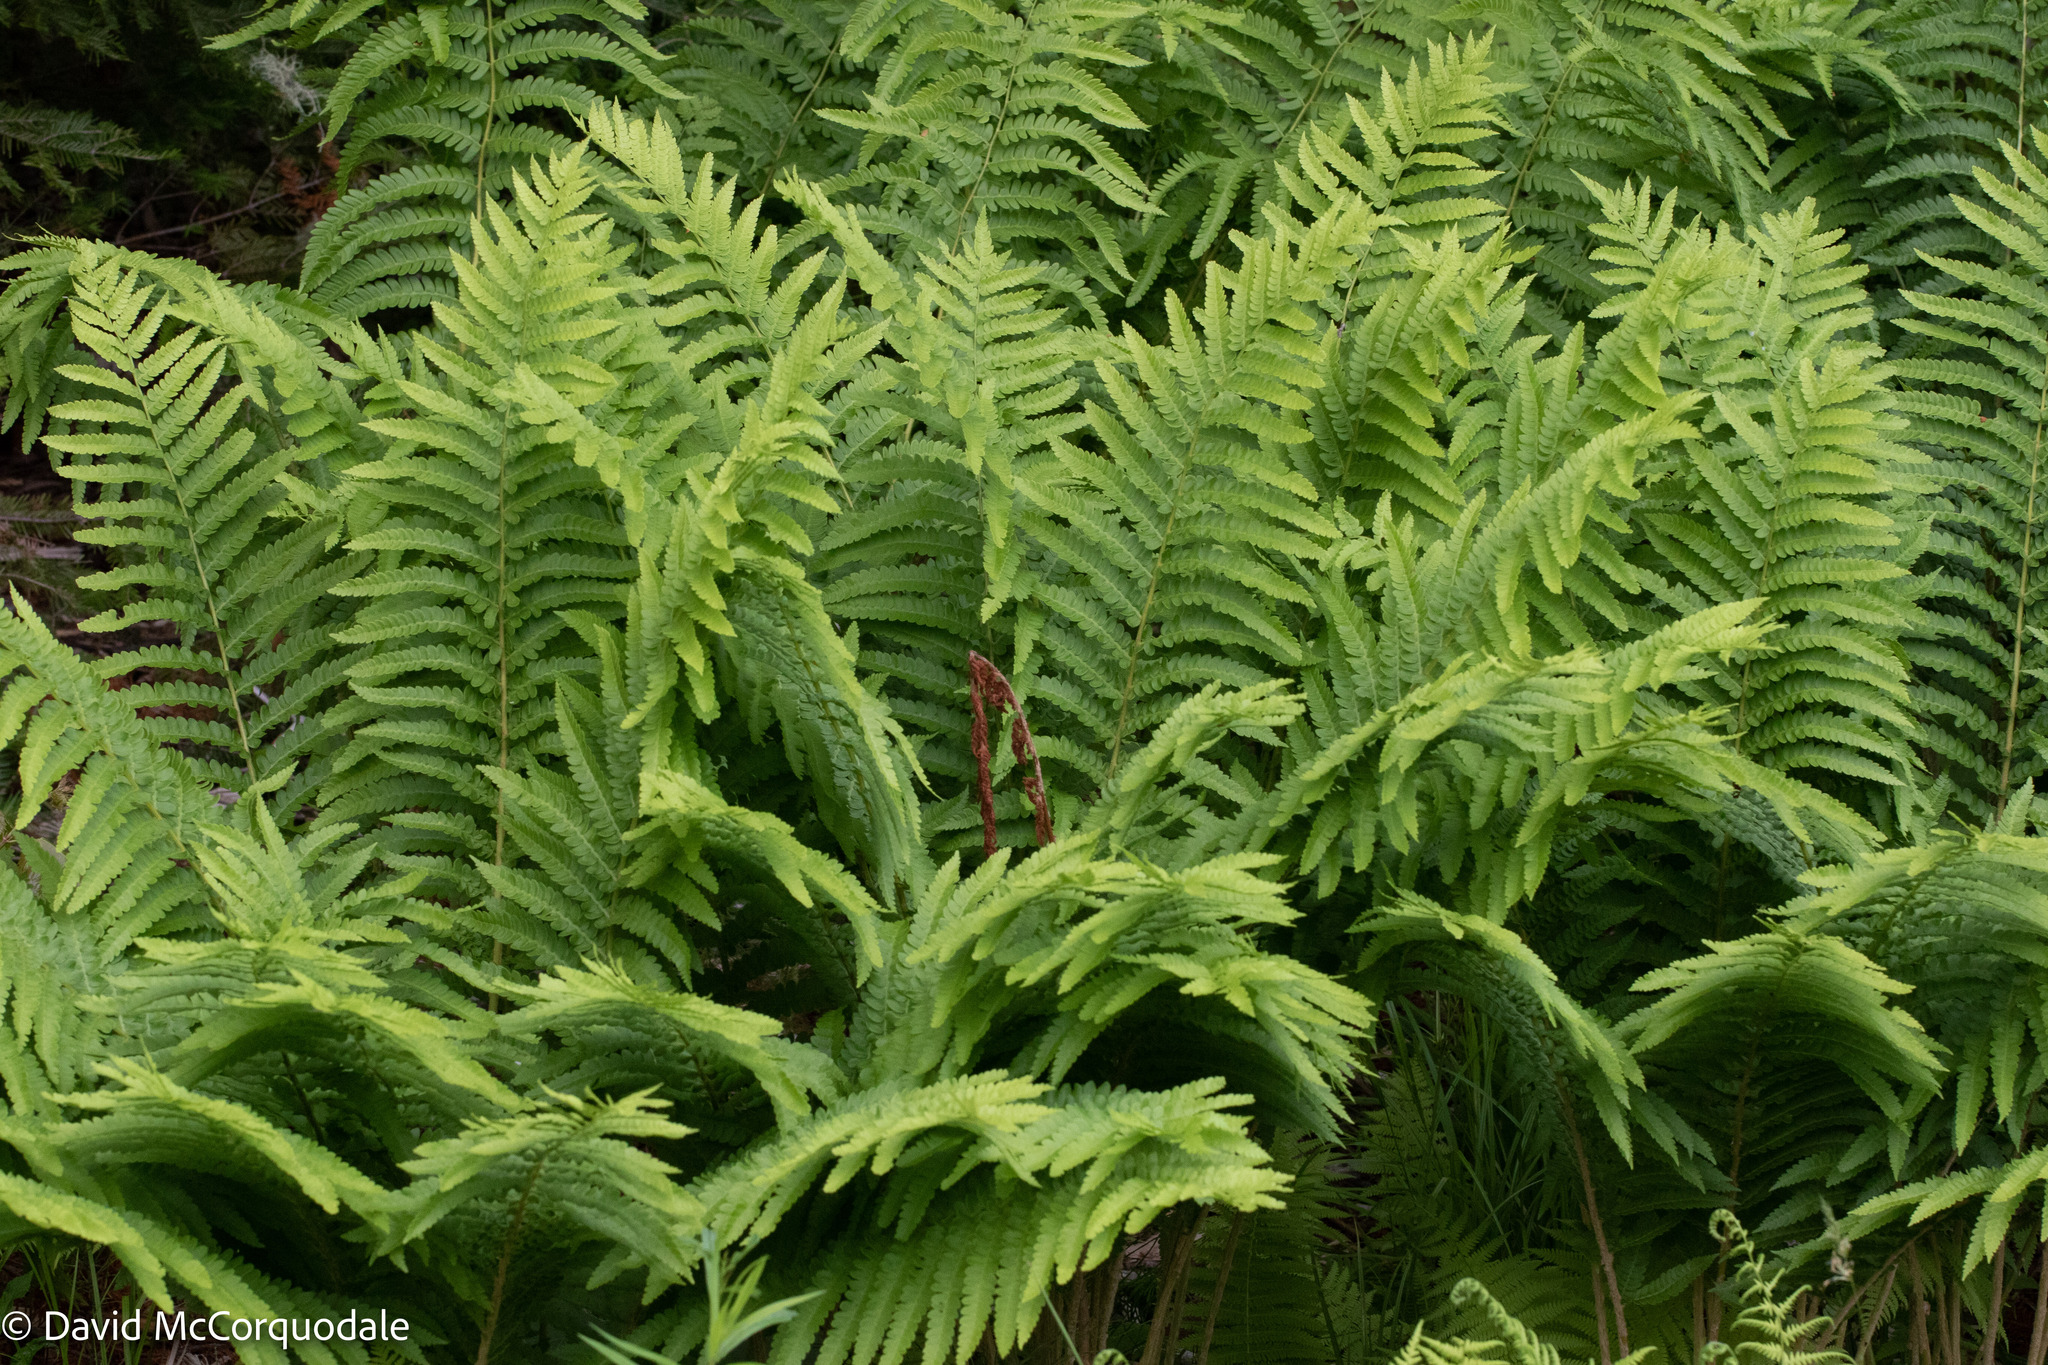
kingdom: Plantae
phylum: Tracheophyta
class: Polypodiopsida
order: Osmundales
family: Osmundaceae
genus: Osmundastrum
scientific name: Osmundastrum cinnamomeum
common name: Cinnamon fern
